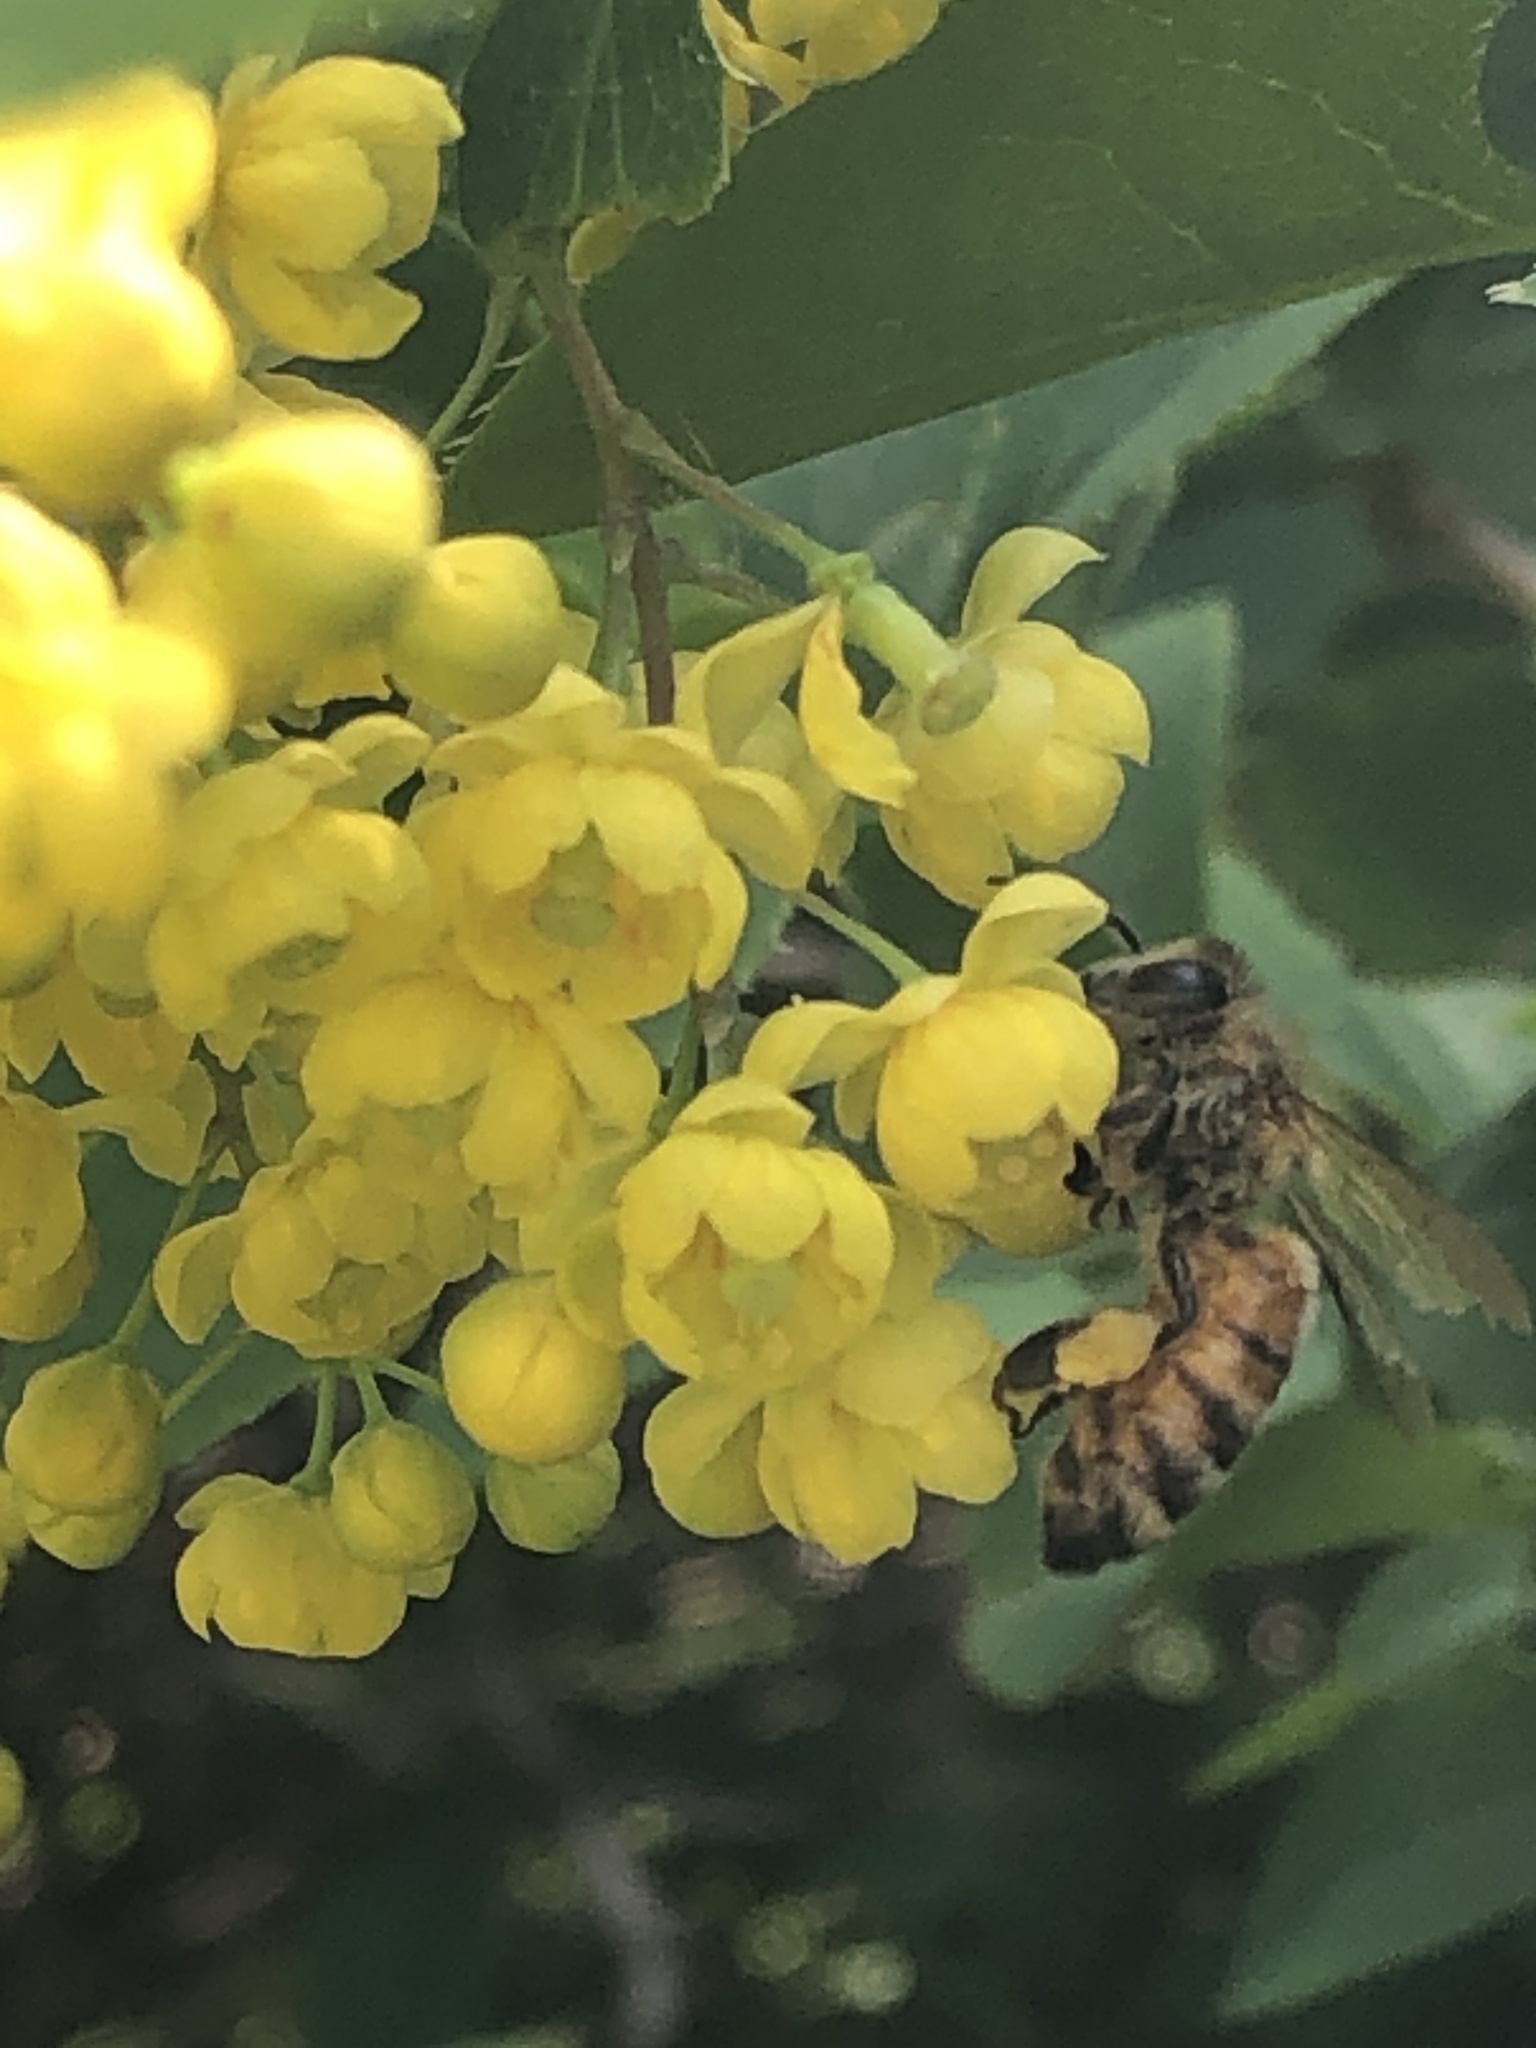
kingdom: Animalia
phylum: Arthropoda
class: Insecta
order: Hymenoptera
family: Apidae
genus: Apis
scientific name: Apis mellifera
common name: Honey bee
